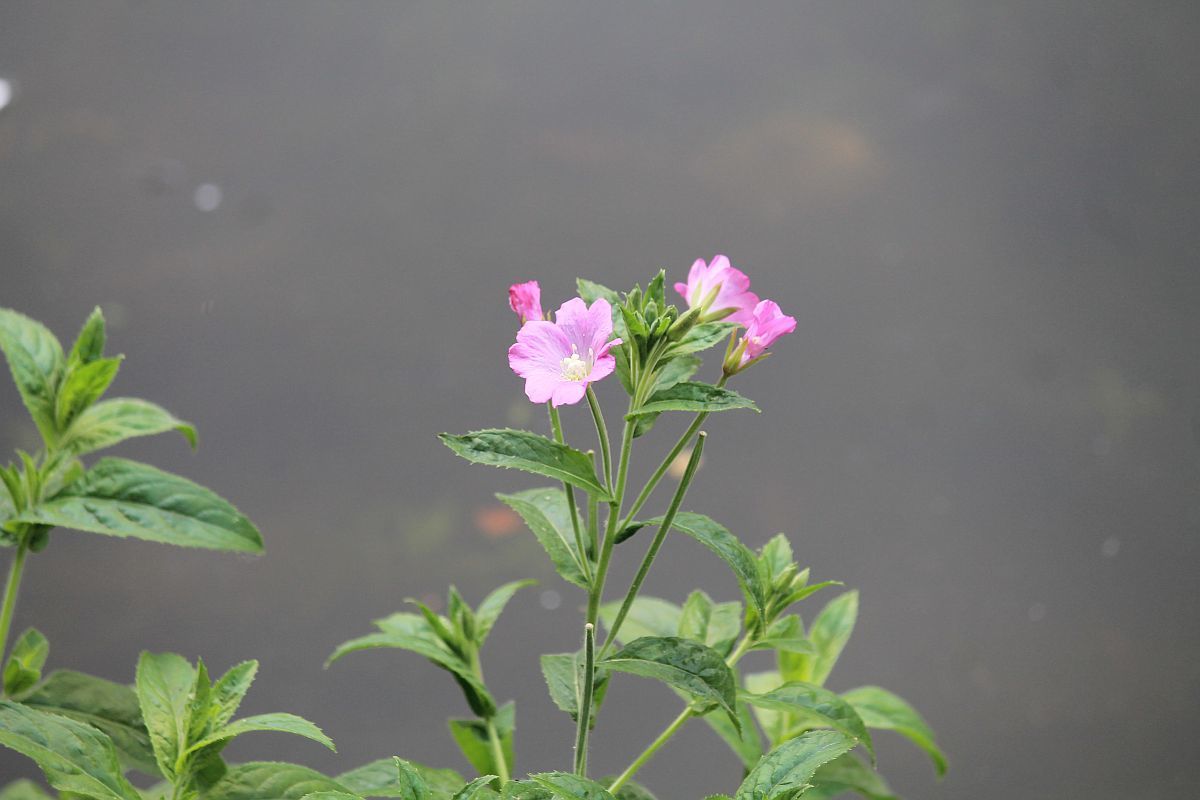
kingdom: Plantae
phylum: Tracheophyta
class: Magnoliopsida
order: Myrtales
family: Onagraceae
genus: Epilobium
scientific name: Epilobium hirsutum
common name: Great willowherb
